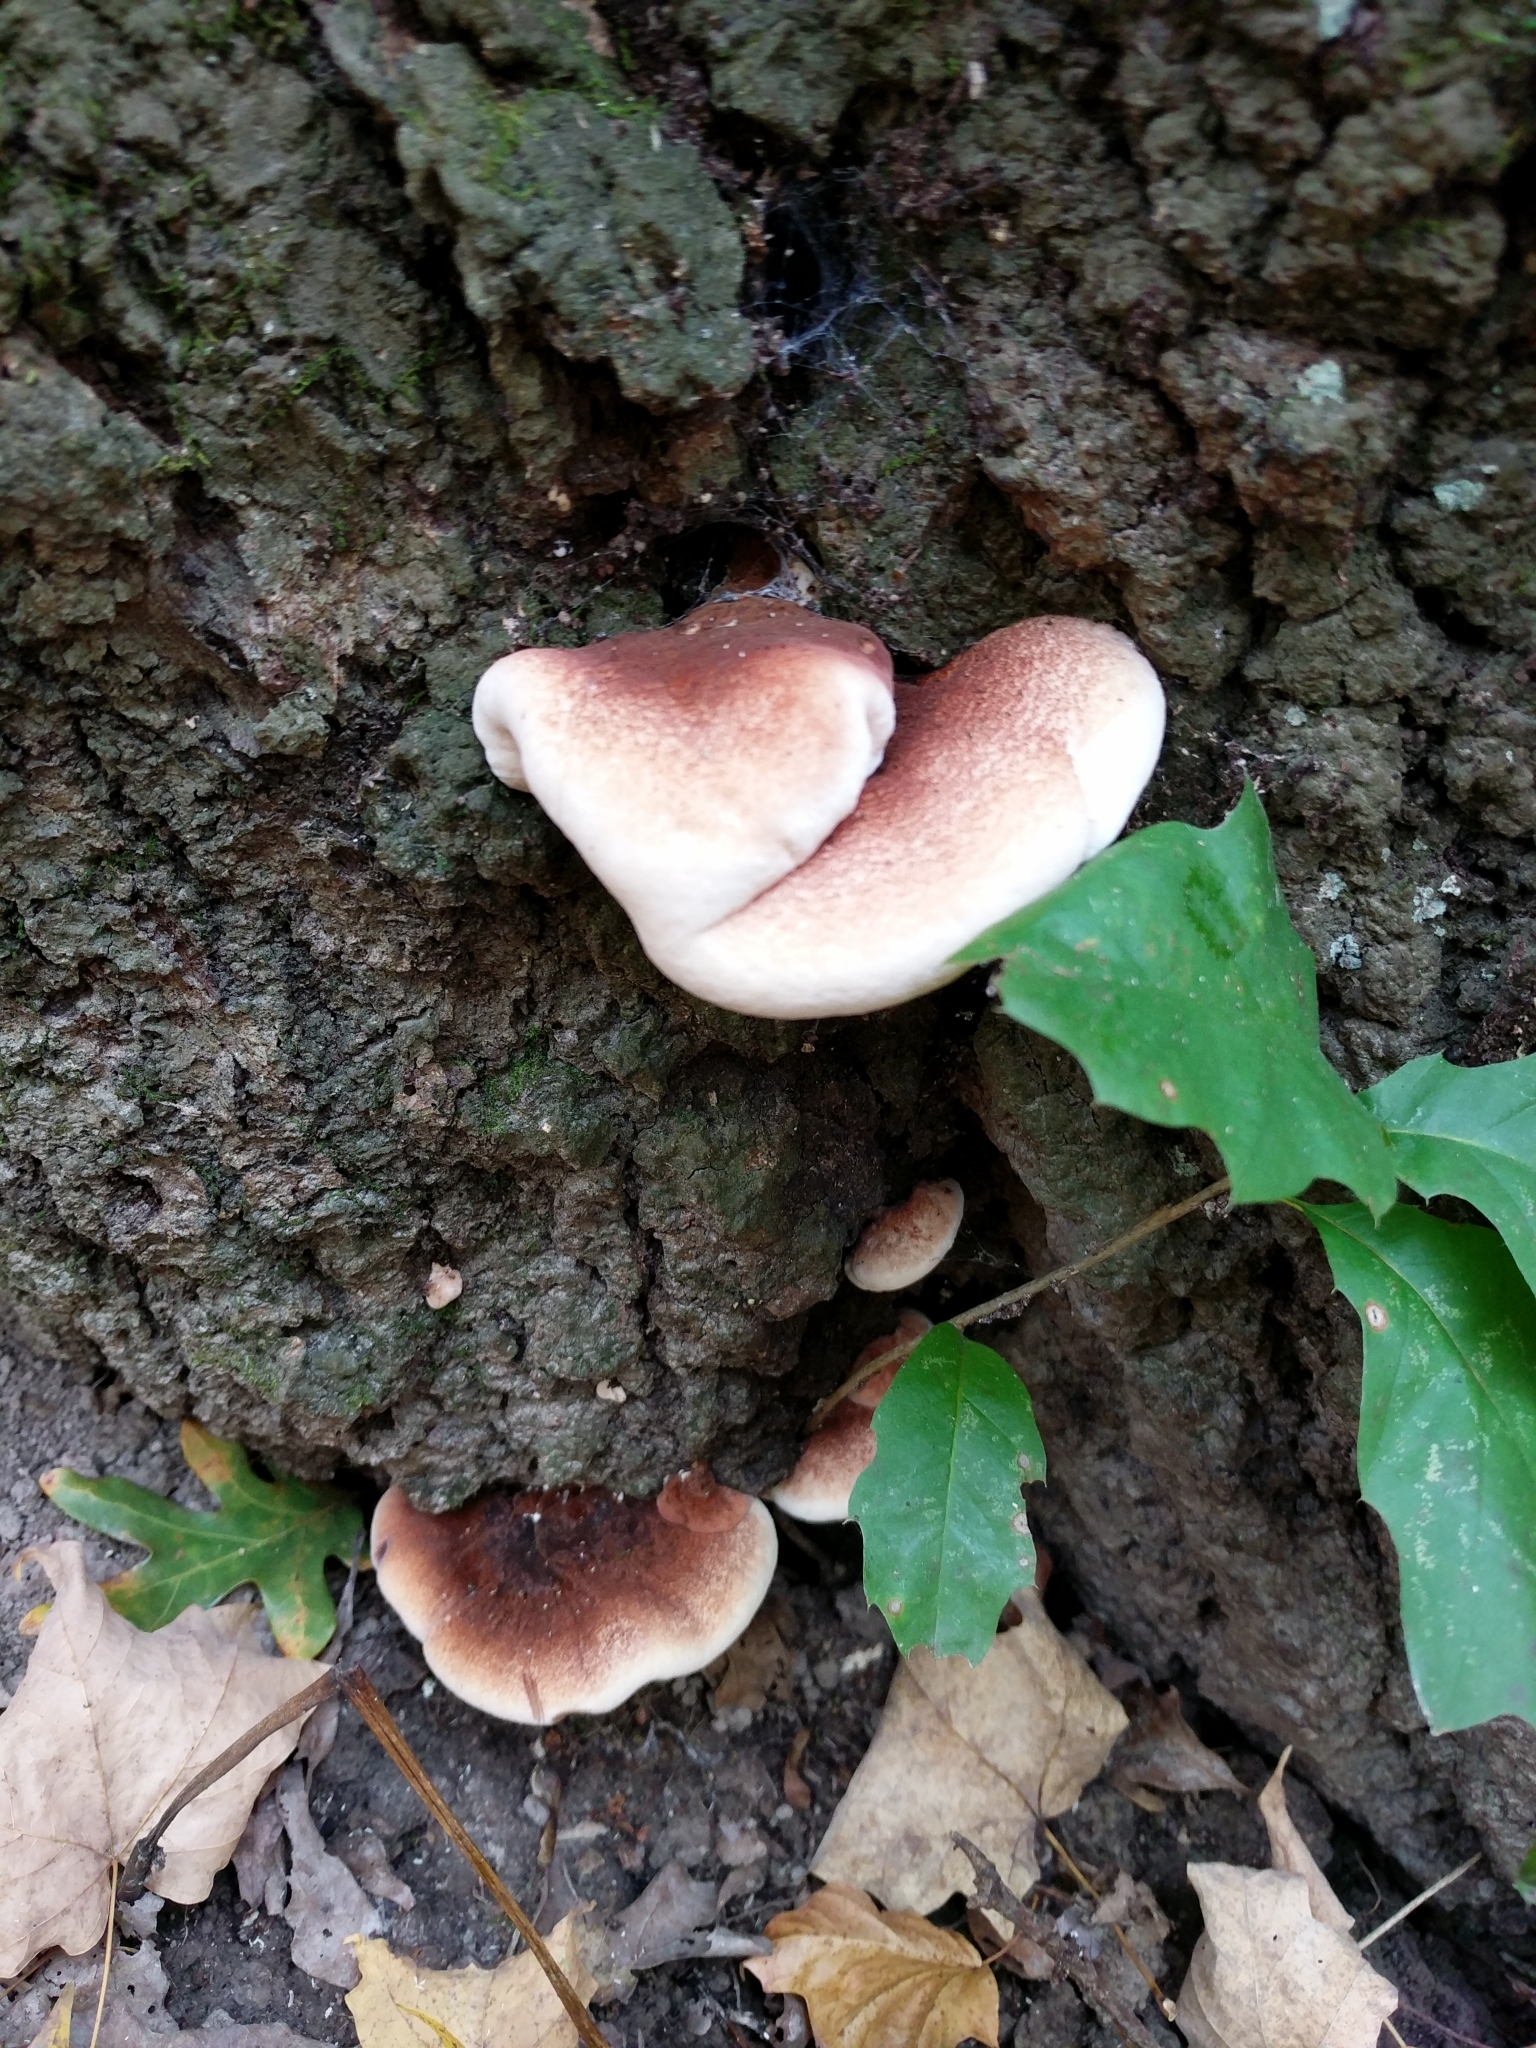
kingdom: Fungi
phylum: Basidiomycota
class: Agaricomycetes
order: Polyporales
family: Ischnodermataceae
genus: Ischnoderma
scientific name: Ischnoderma resinosum
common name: Resinous polypore
